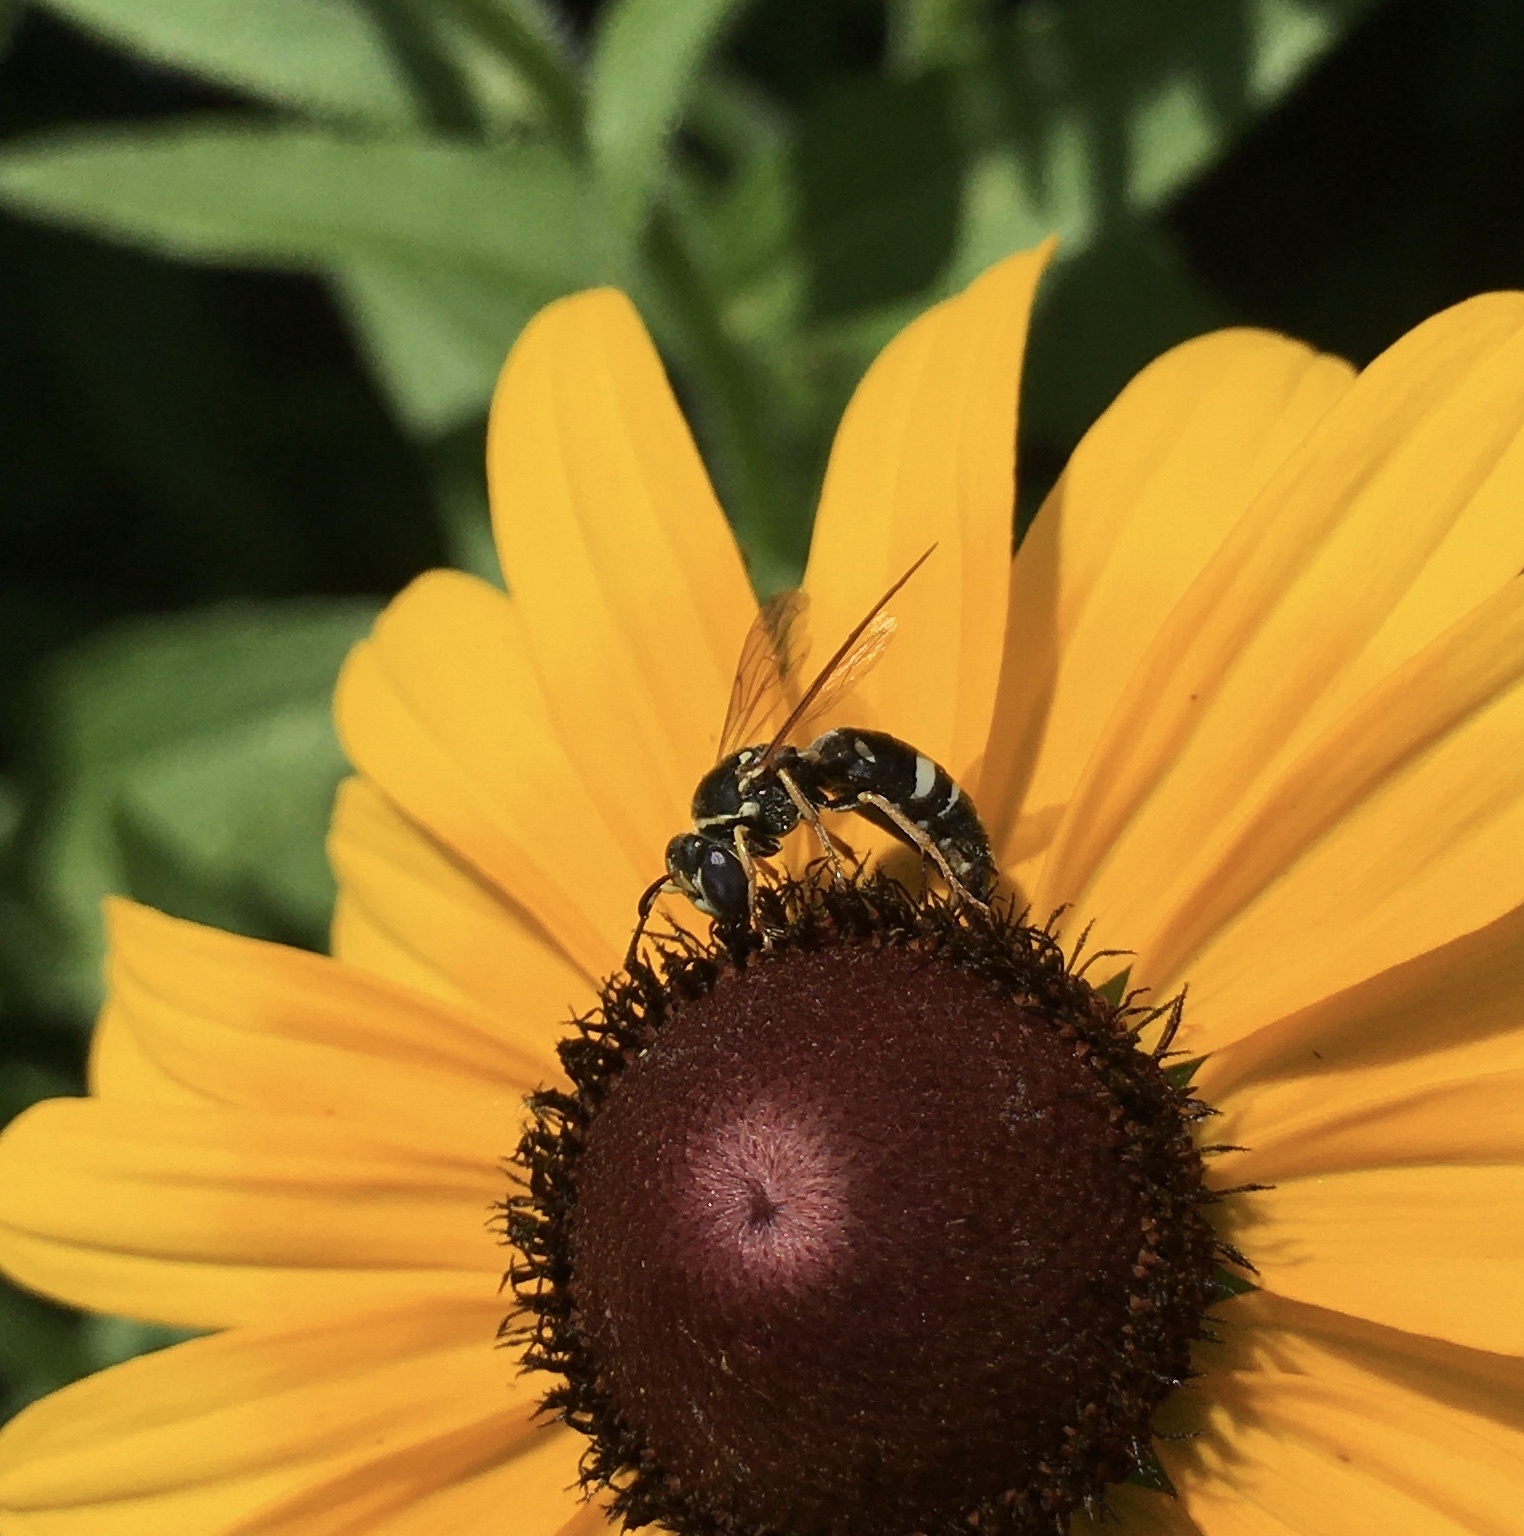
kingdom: Animalia
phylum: Arthropoda
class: Insecta
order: Hymenoptera
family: Crabronidae
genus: Bicyrtes
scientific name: Bicyrtes ventralis
